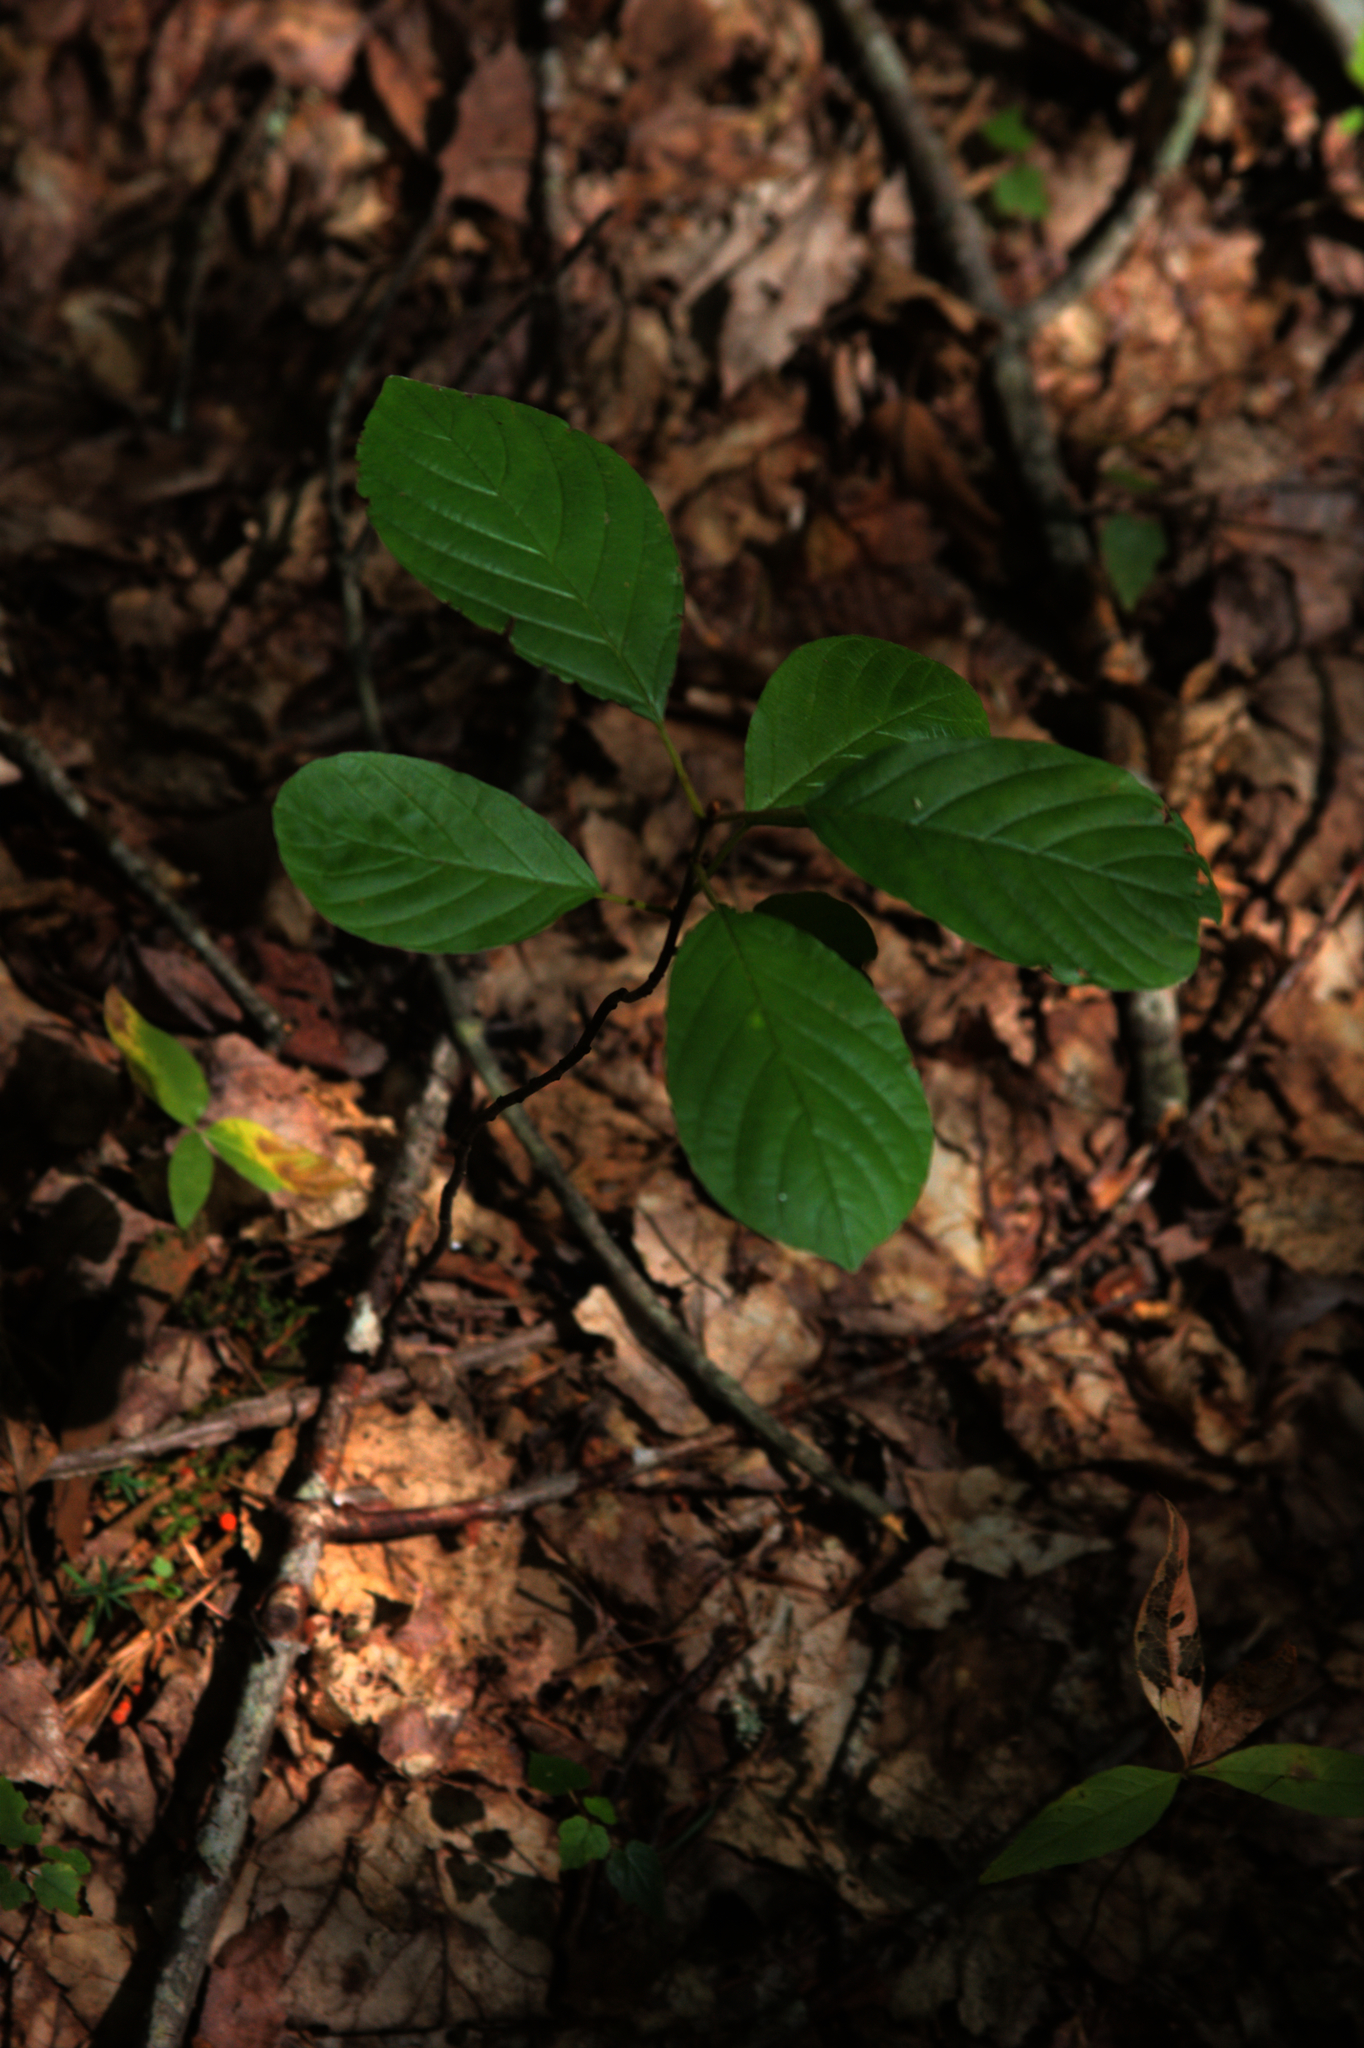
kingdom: Plantae
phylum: Tracheophyta
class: Magnoliopsida
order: Rosales
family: Rhamnaceae
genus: Frangula
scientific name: Frangula alnus
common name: Alder buckthorn
